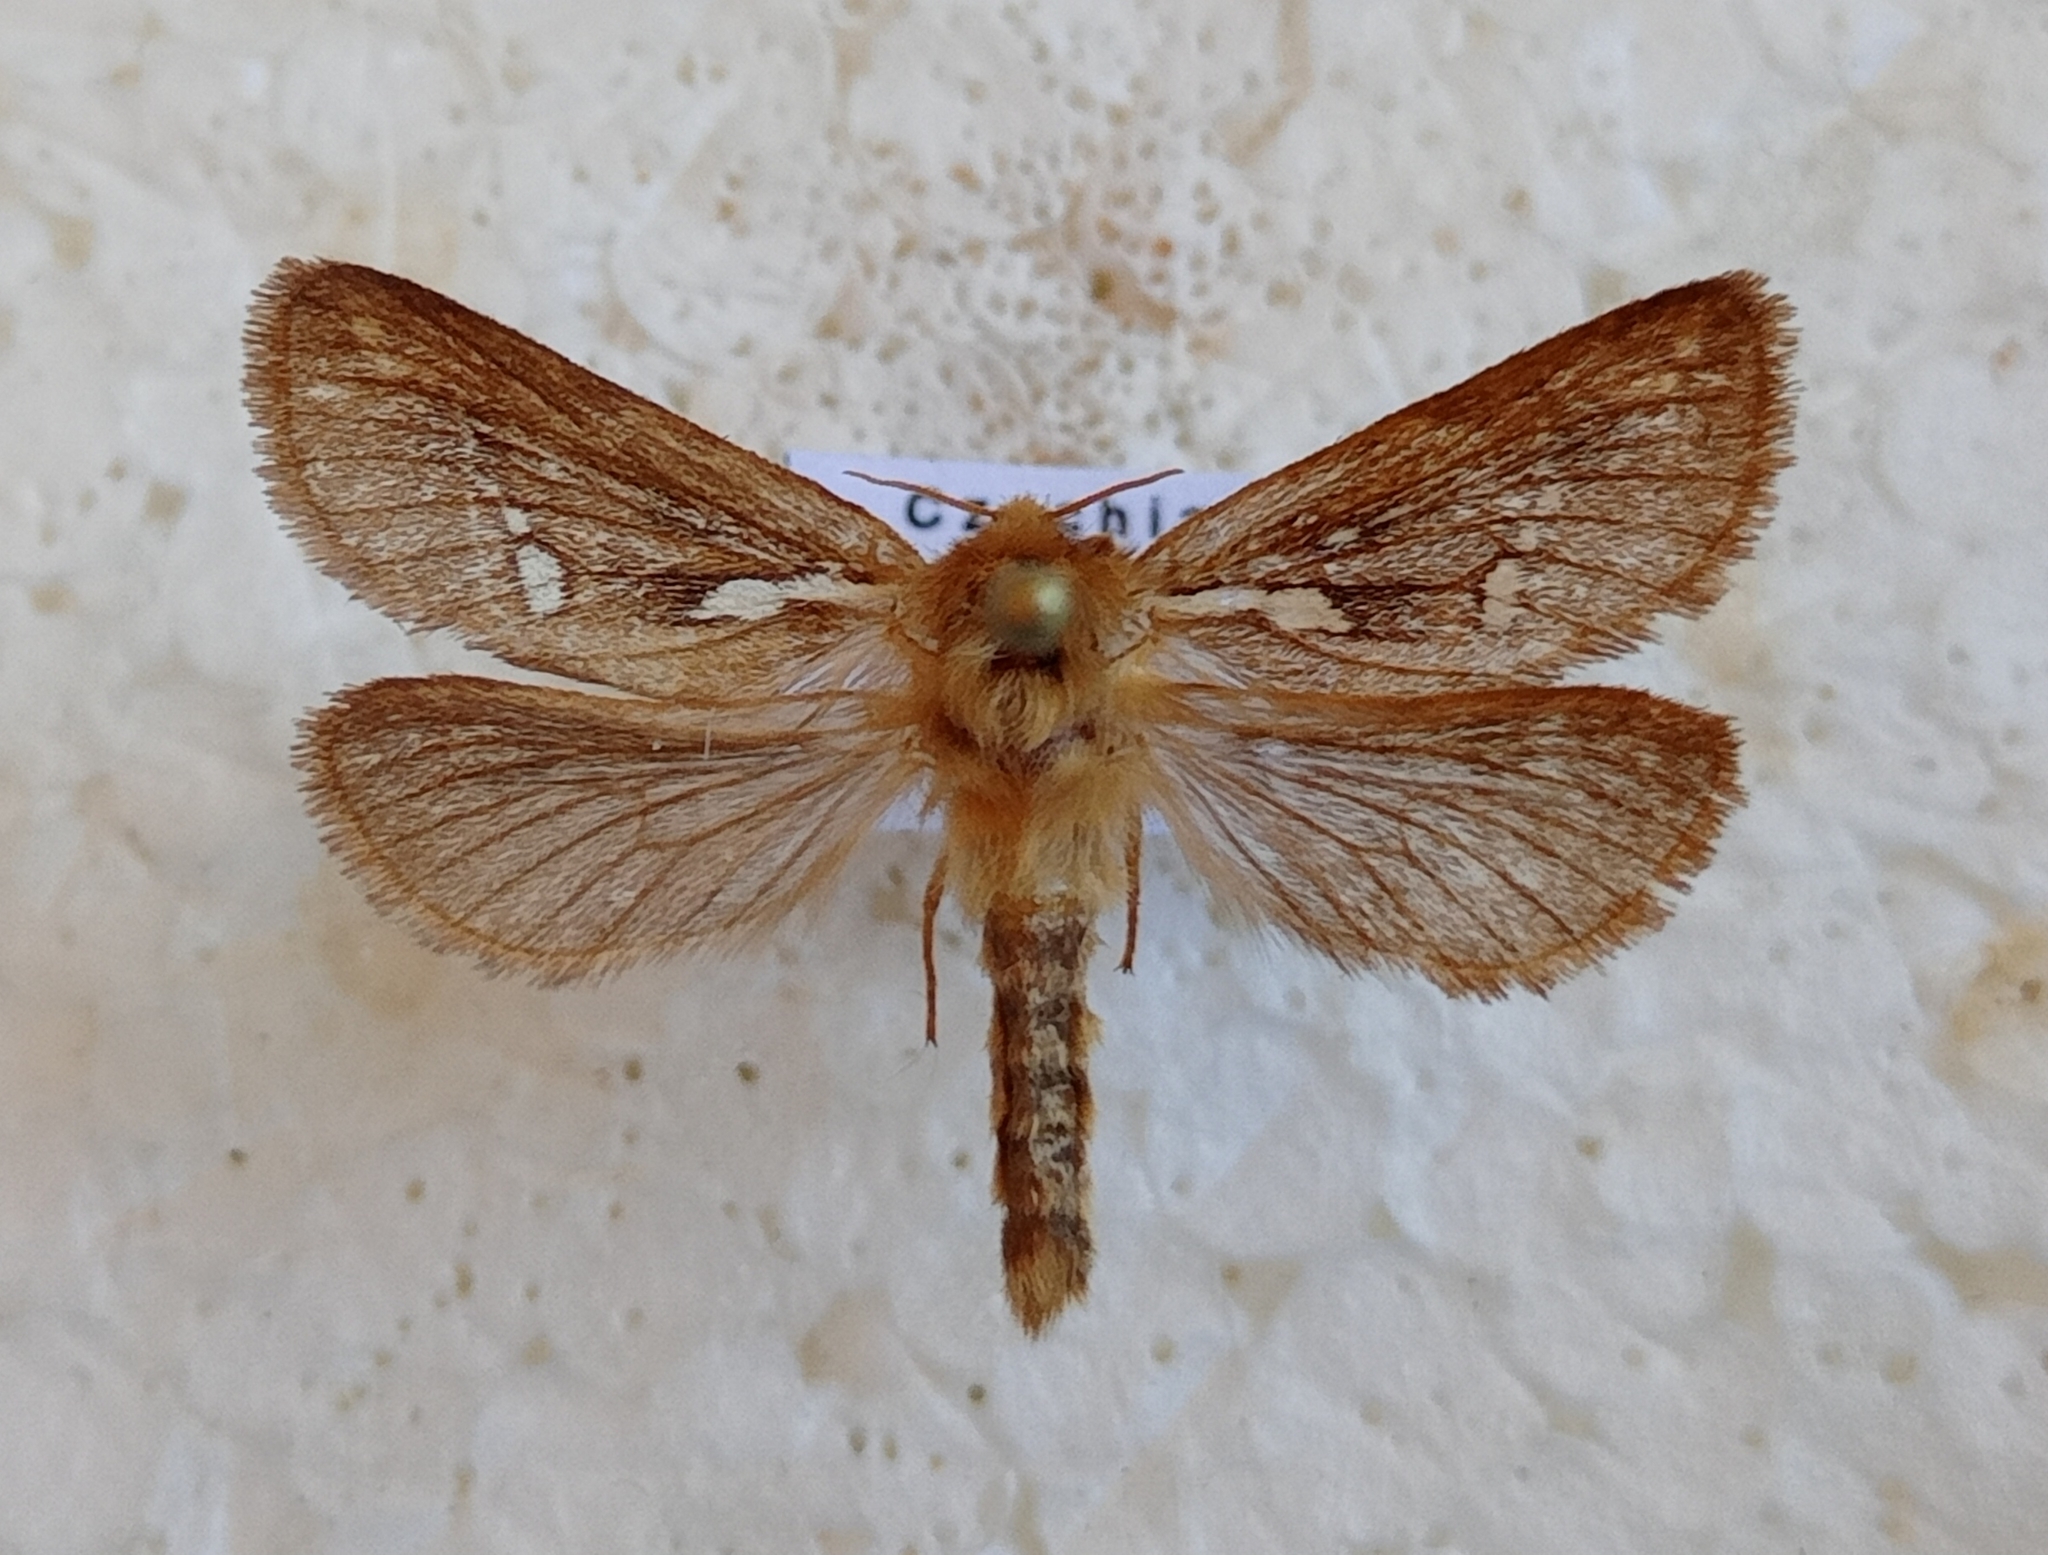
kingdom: Animalia
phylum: Arthropoda
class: Insecta
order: Lepidoptera
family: Hepialidae
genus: Korscheltellus
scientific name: Korscheltellus lupulina
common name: Common swift
